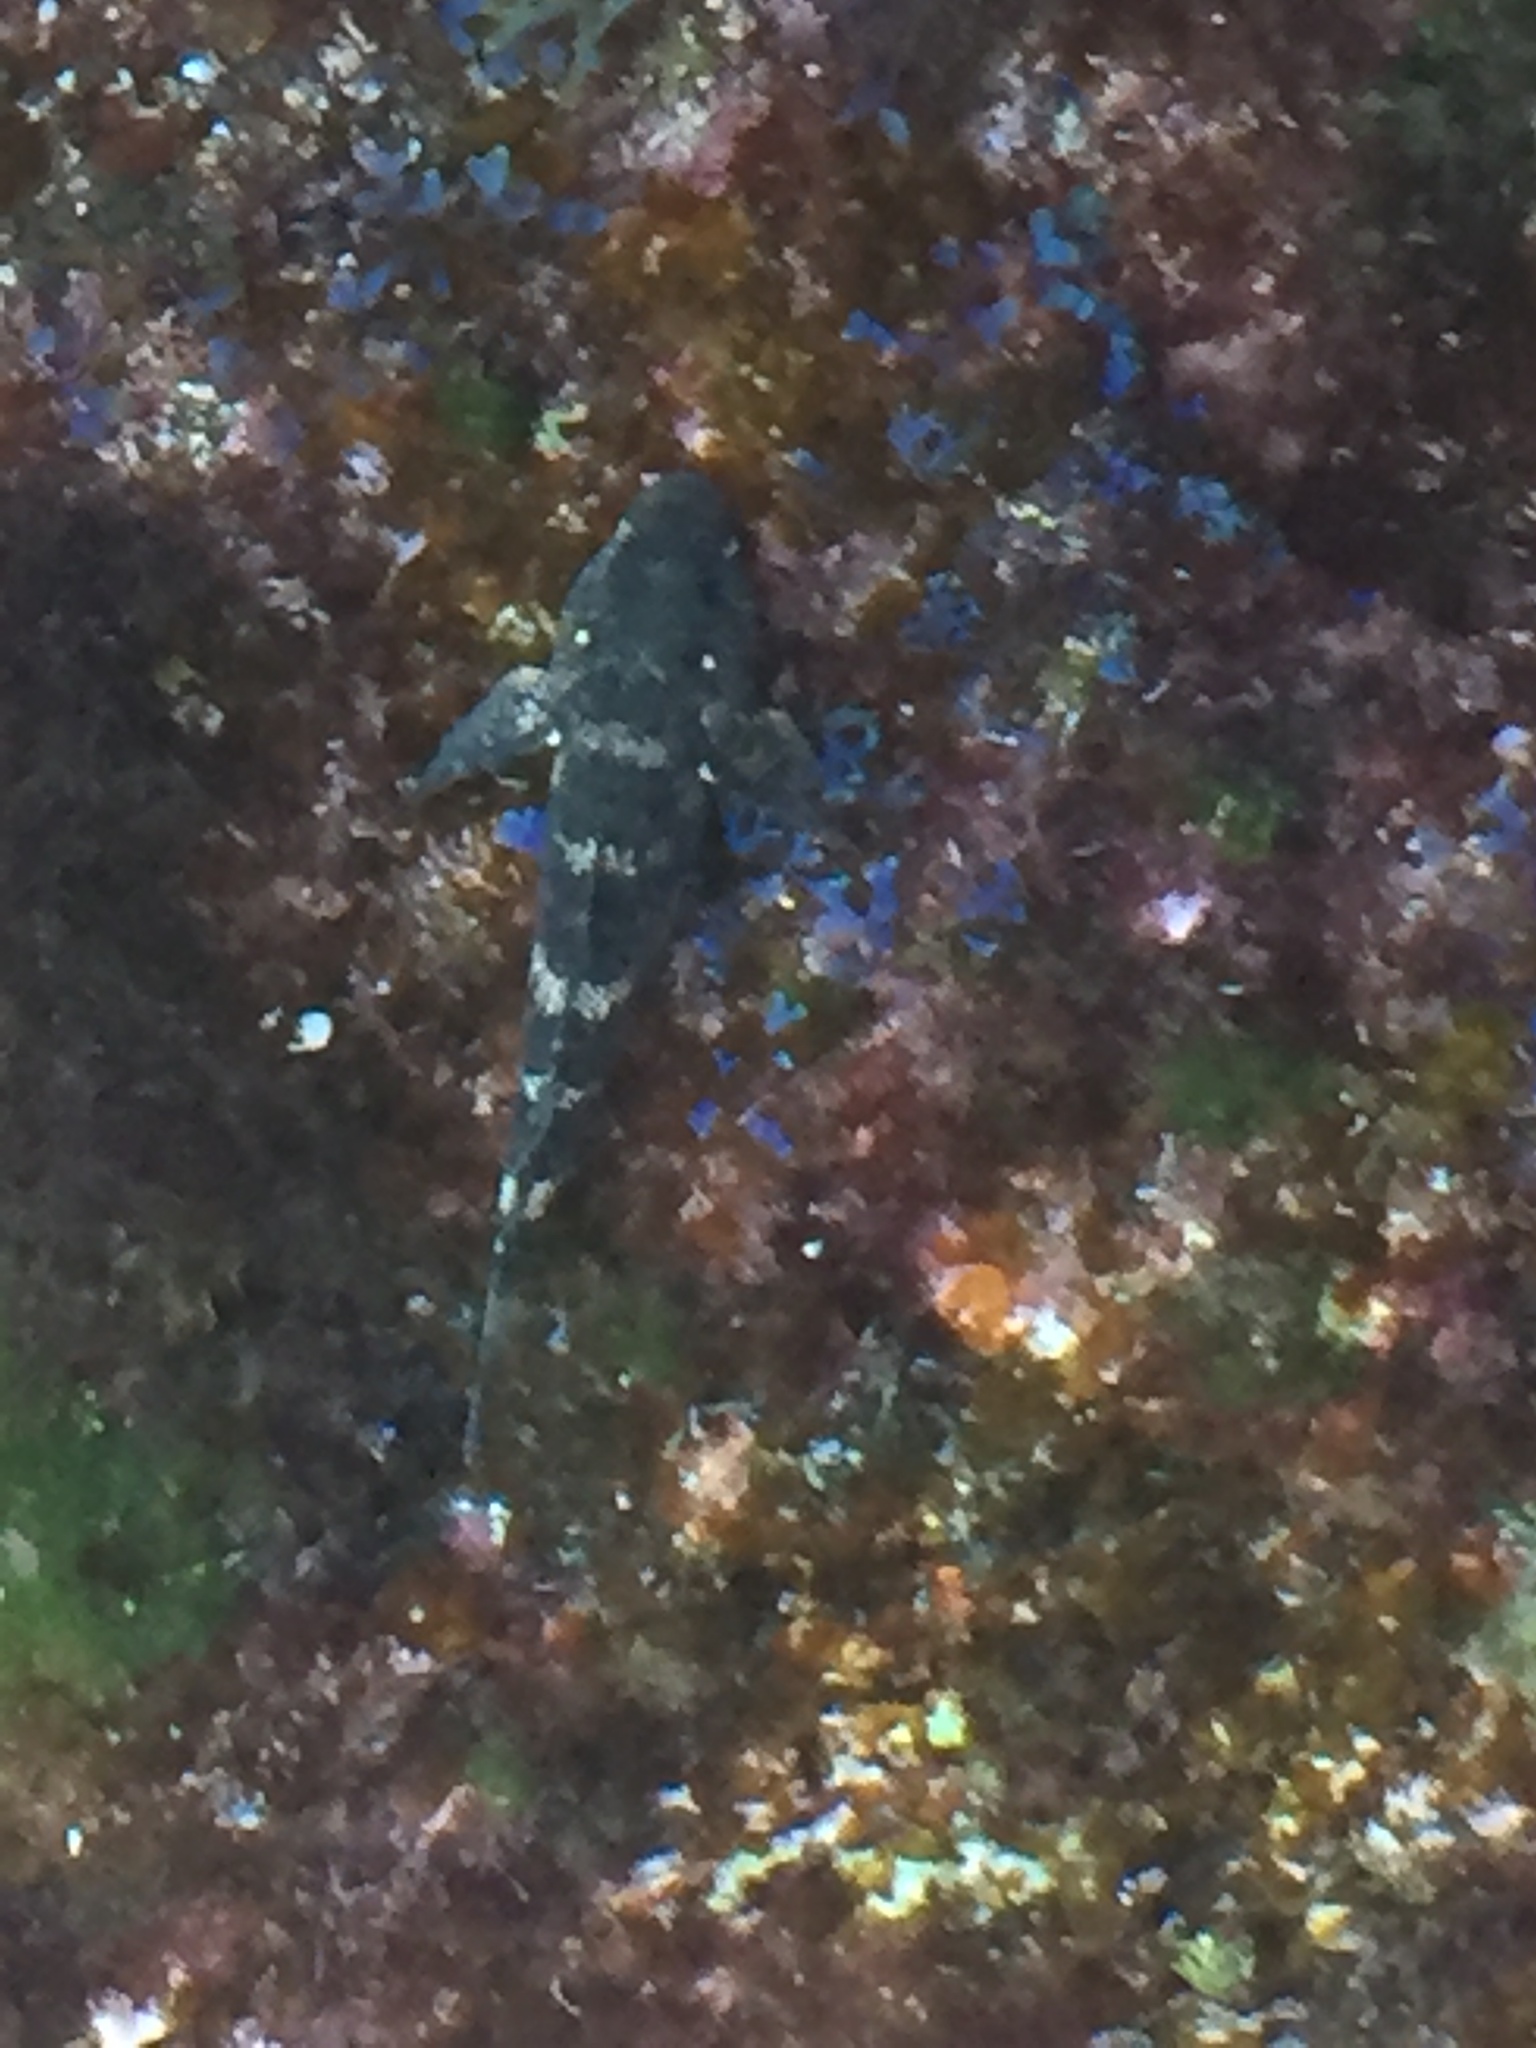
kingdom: Animalia
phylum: Chordata
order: Perciformes
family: Gobiidae
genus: Mauligobius
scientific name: Mauligobius maderensis
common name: Rock goby
